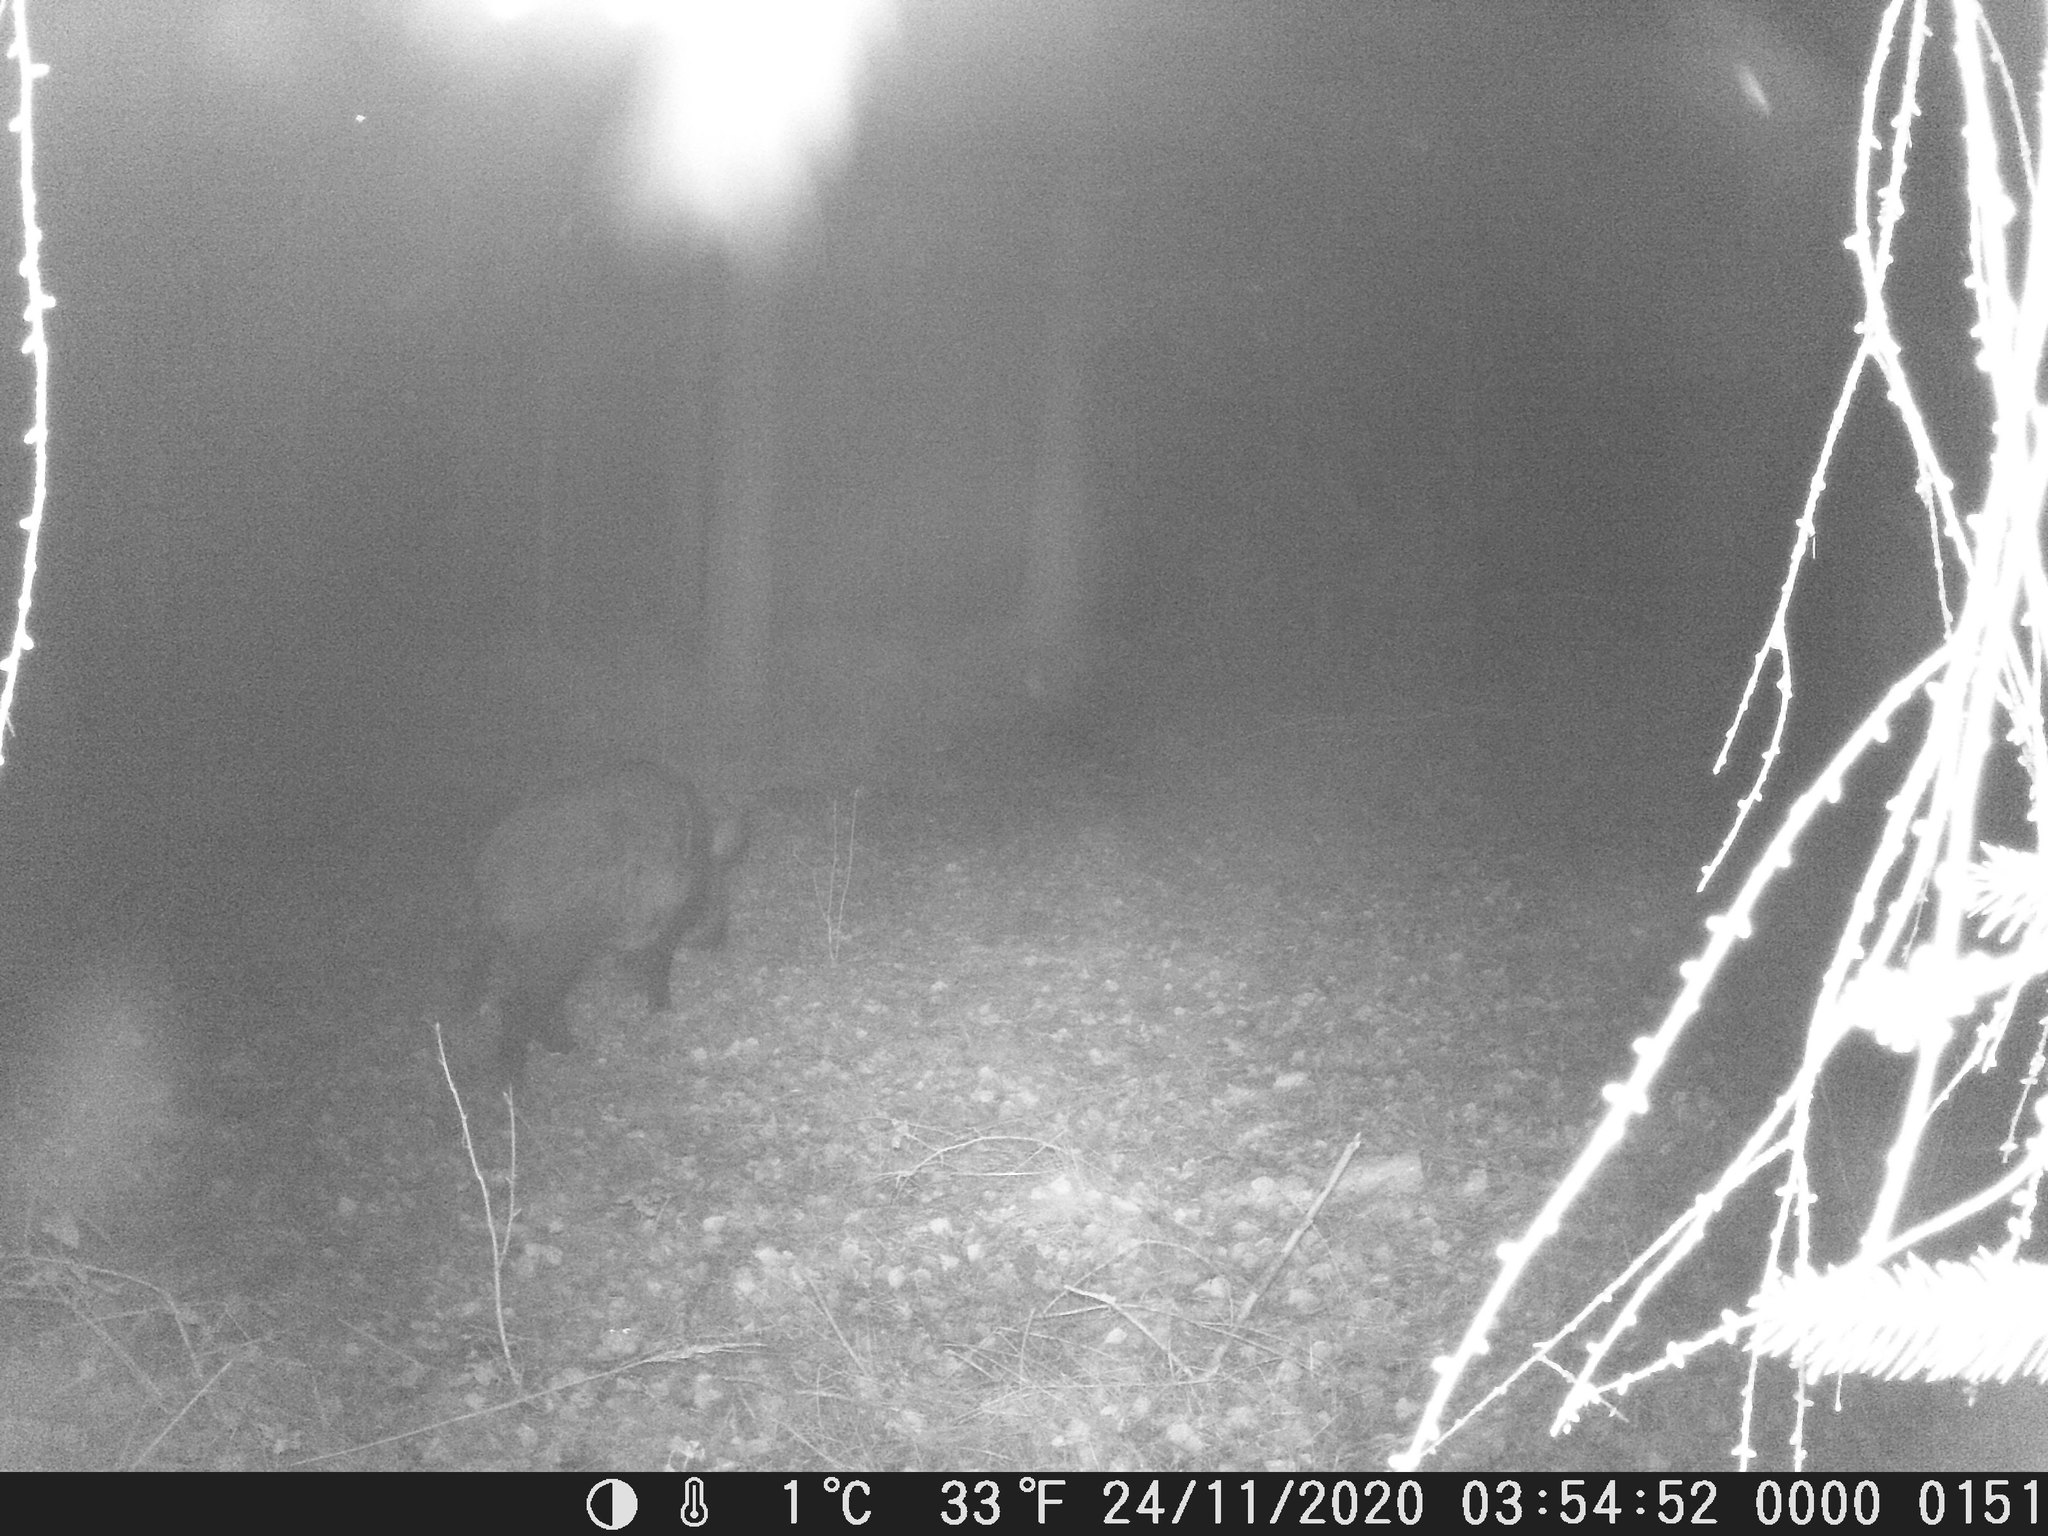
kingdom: Animalia
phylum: Chordata
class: Mammalia
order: Artiodactyla
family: Suidae
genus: Sus
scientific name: Sus scrofa
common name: Wild boar
